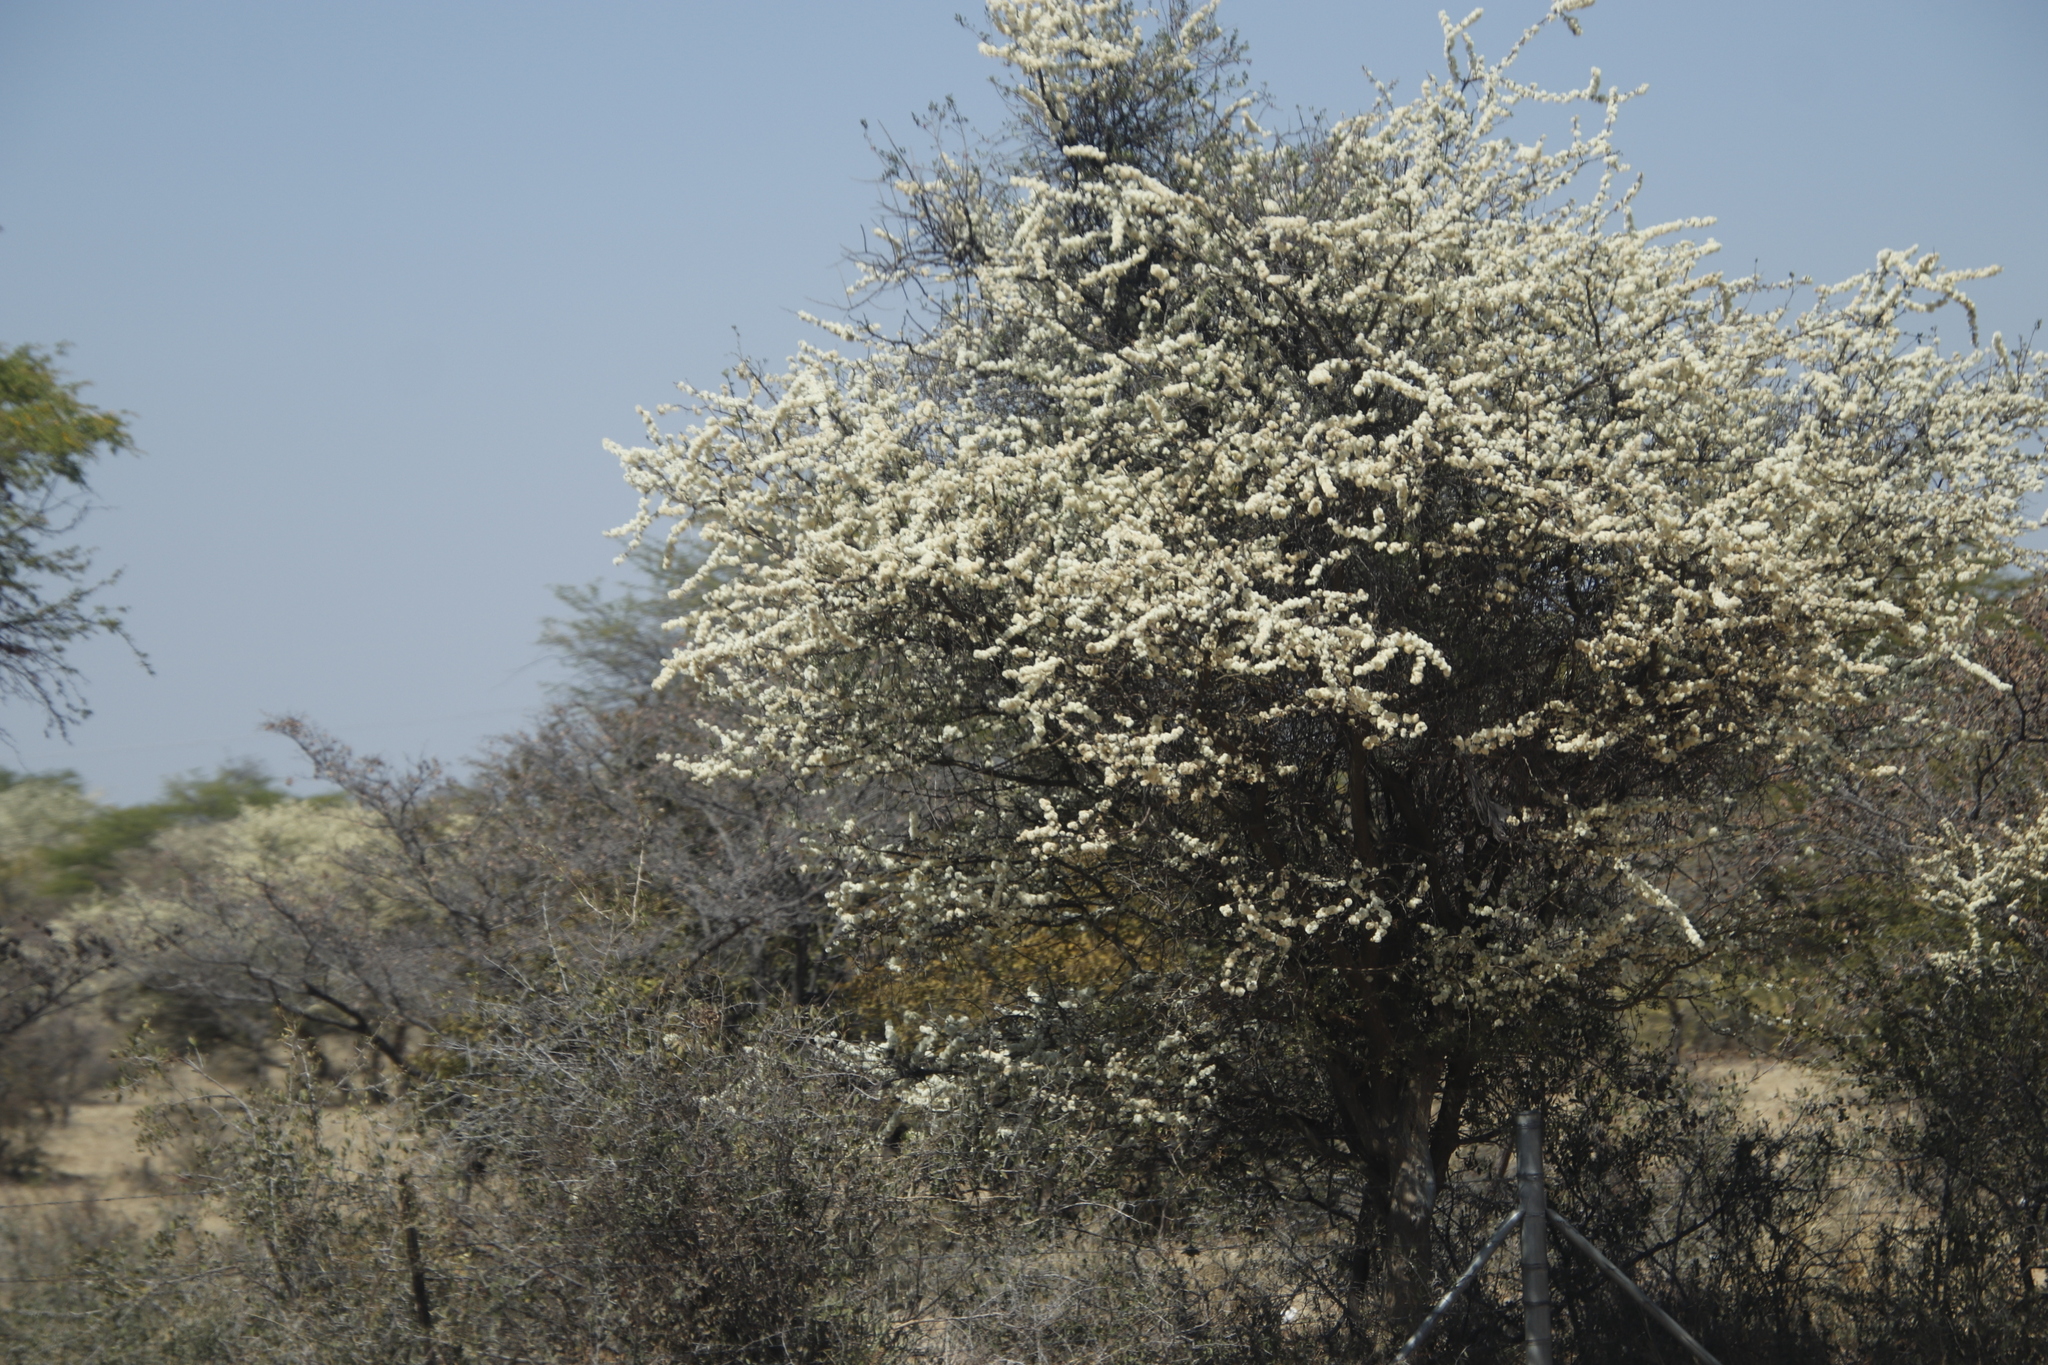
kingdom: Plantae
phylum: Tracheophyta
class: Magnoliopsida
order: Fabales
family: Fabaceae
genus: Senegalia
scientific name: Senegalia mellifera
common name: Hookthorn
